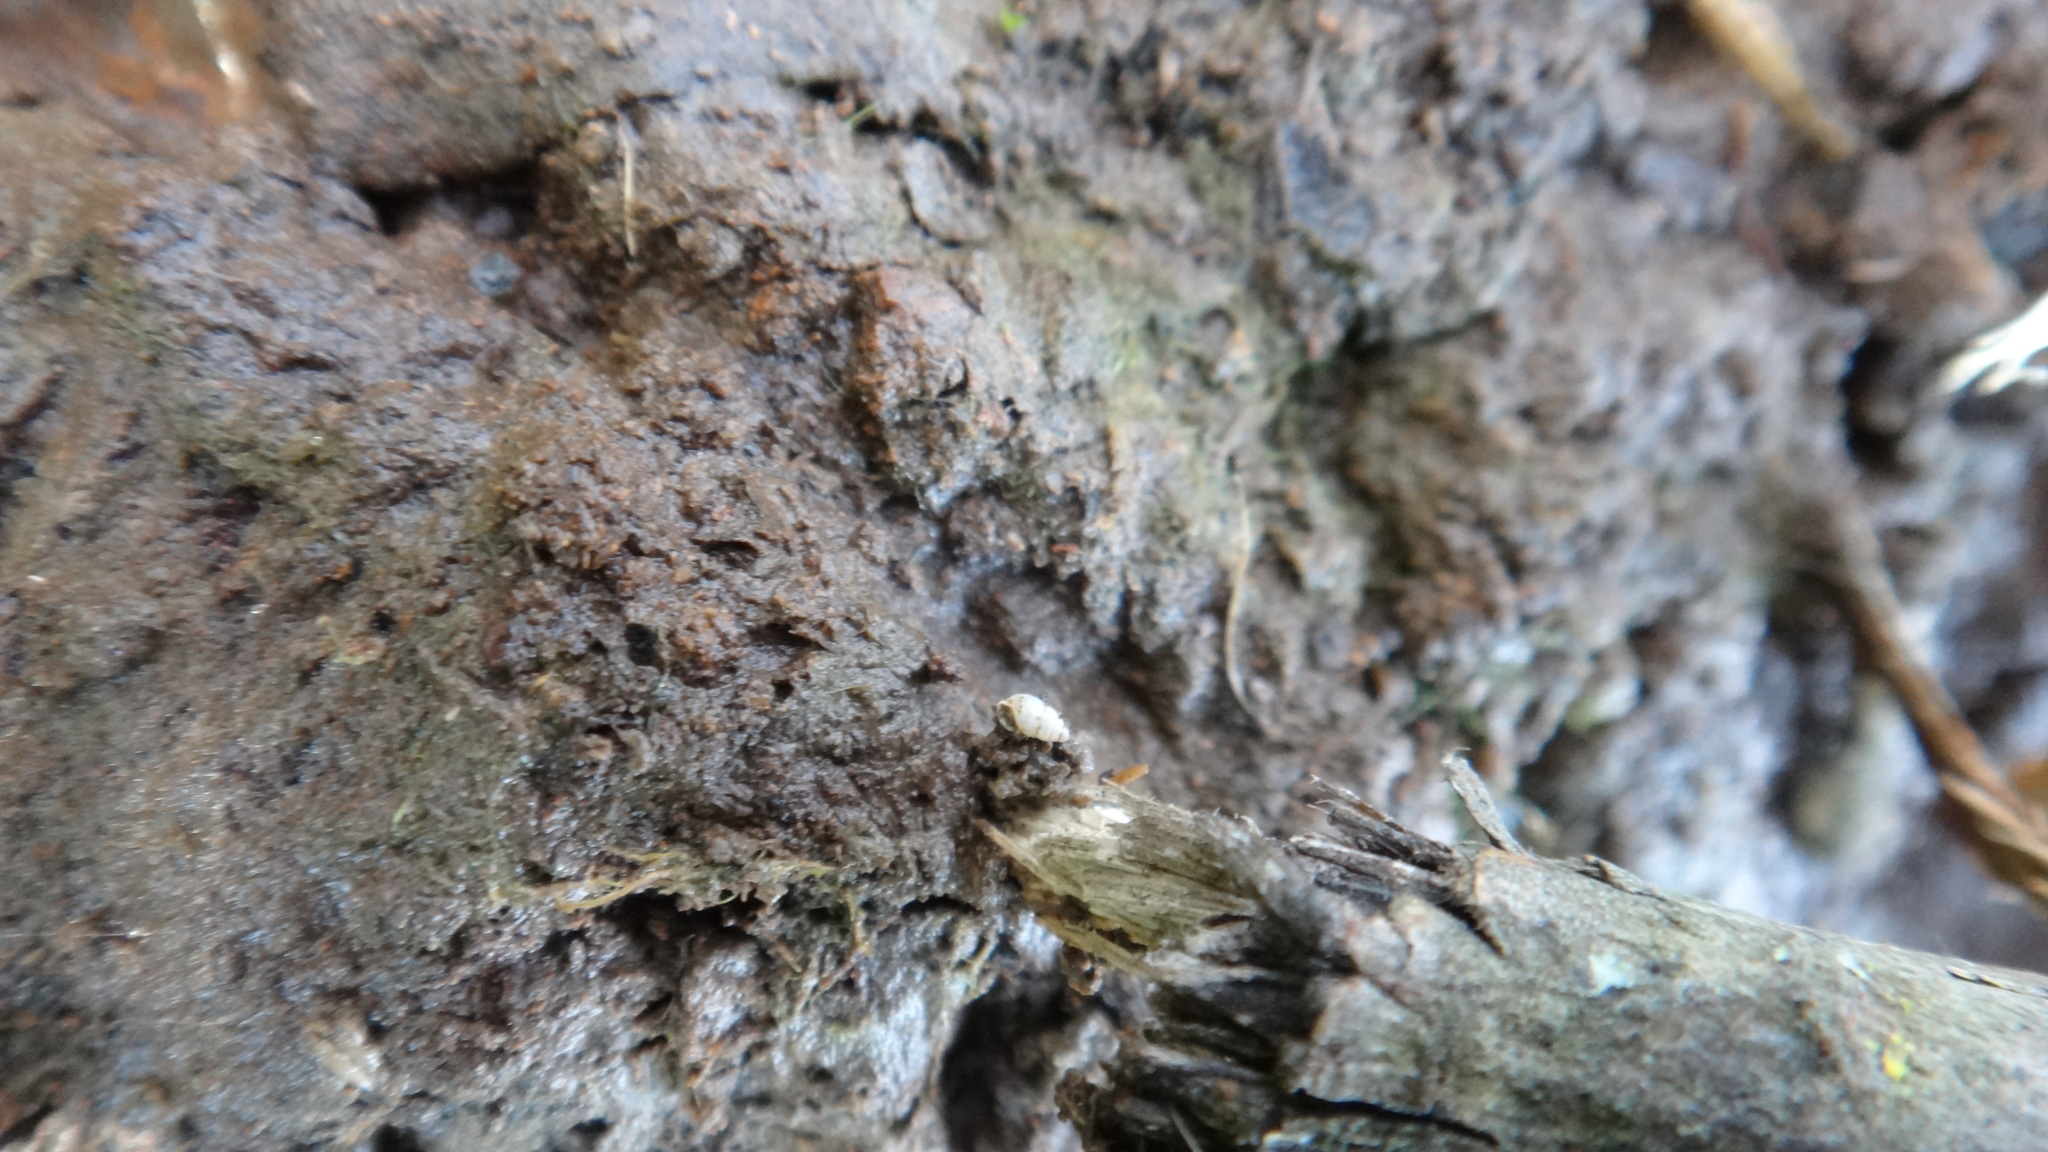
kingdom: Animalia
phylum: Mollusca
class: Gastropoda
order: Ellobiida
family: Ellobiidae
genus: Carychium
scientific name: Carychium minimum
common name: Short-toothed herald snail
